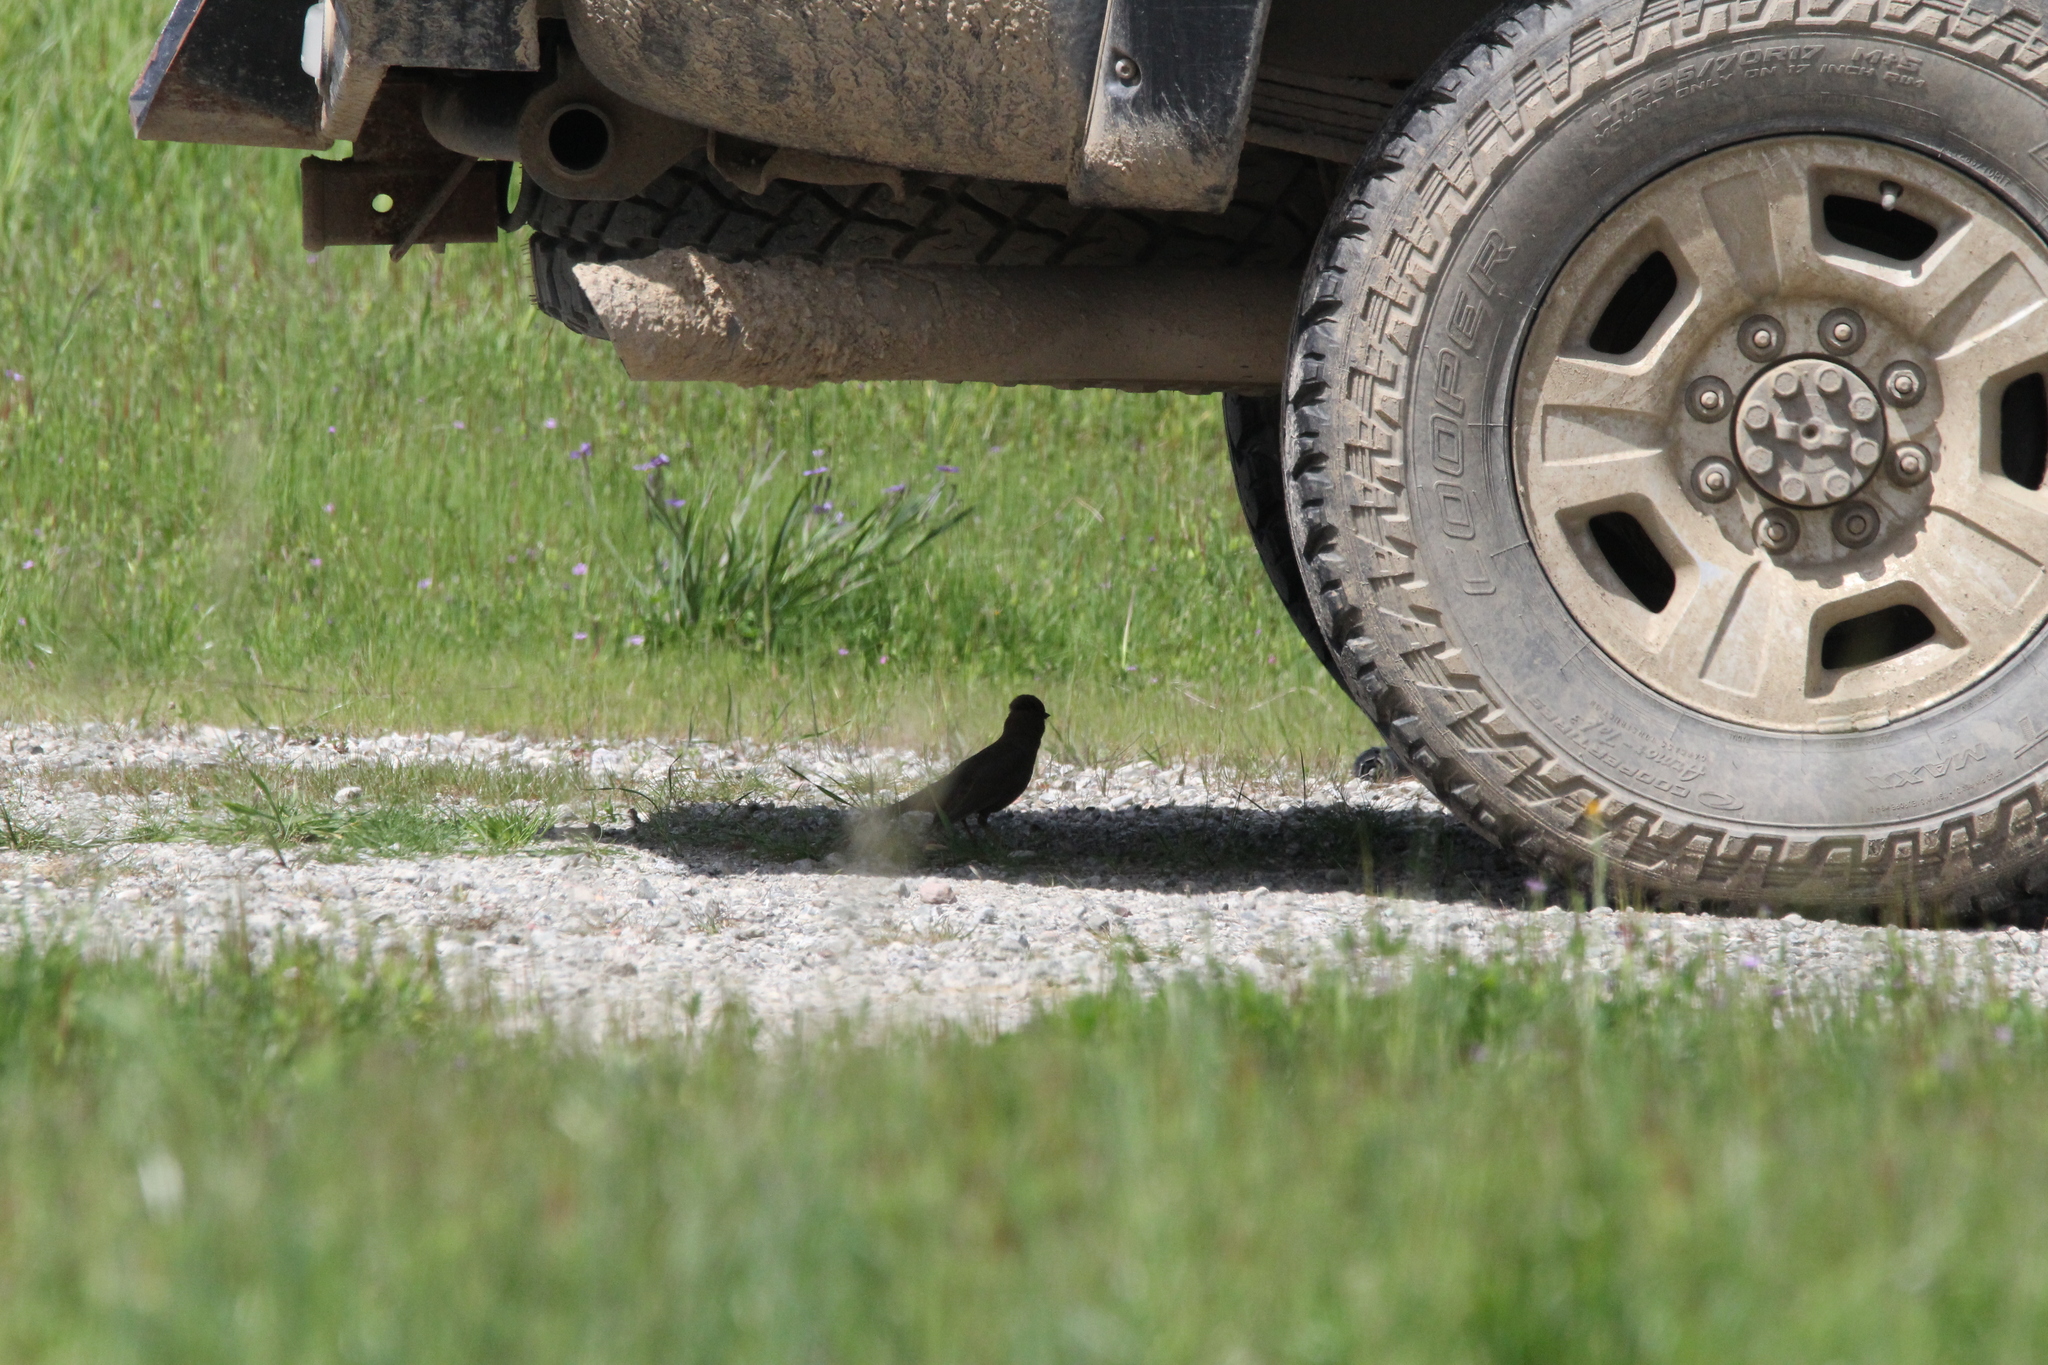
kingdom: Animalia
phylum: Chordata
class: Aves
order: Passeriformes
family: Passerellidae
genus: Melozone
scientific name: Melozone crissalis
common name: California towhee
